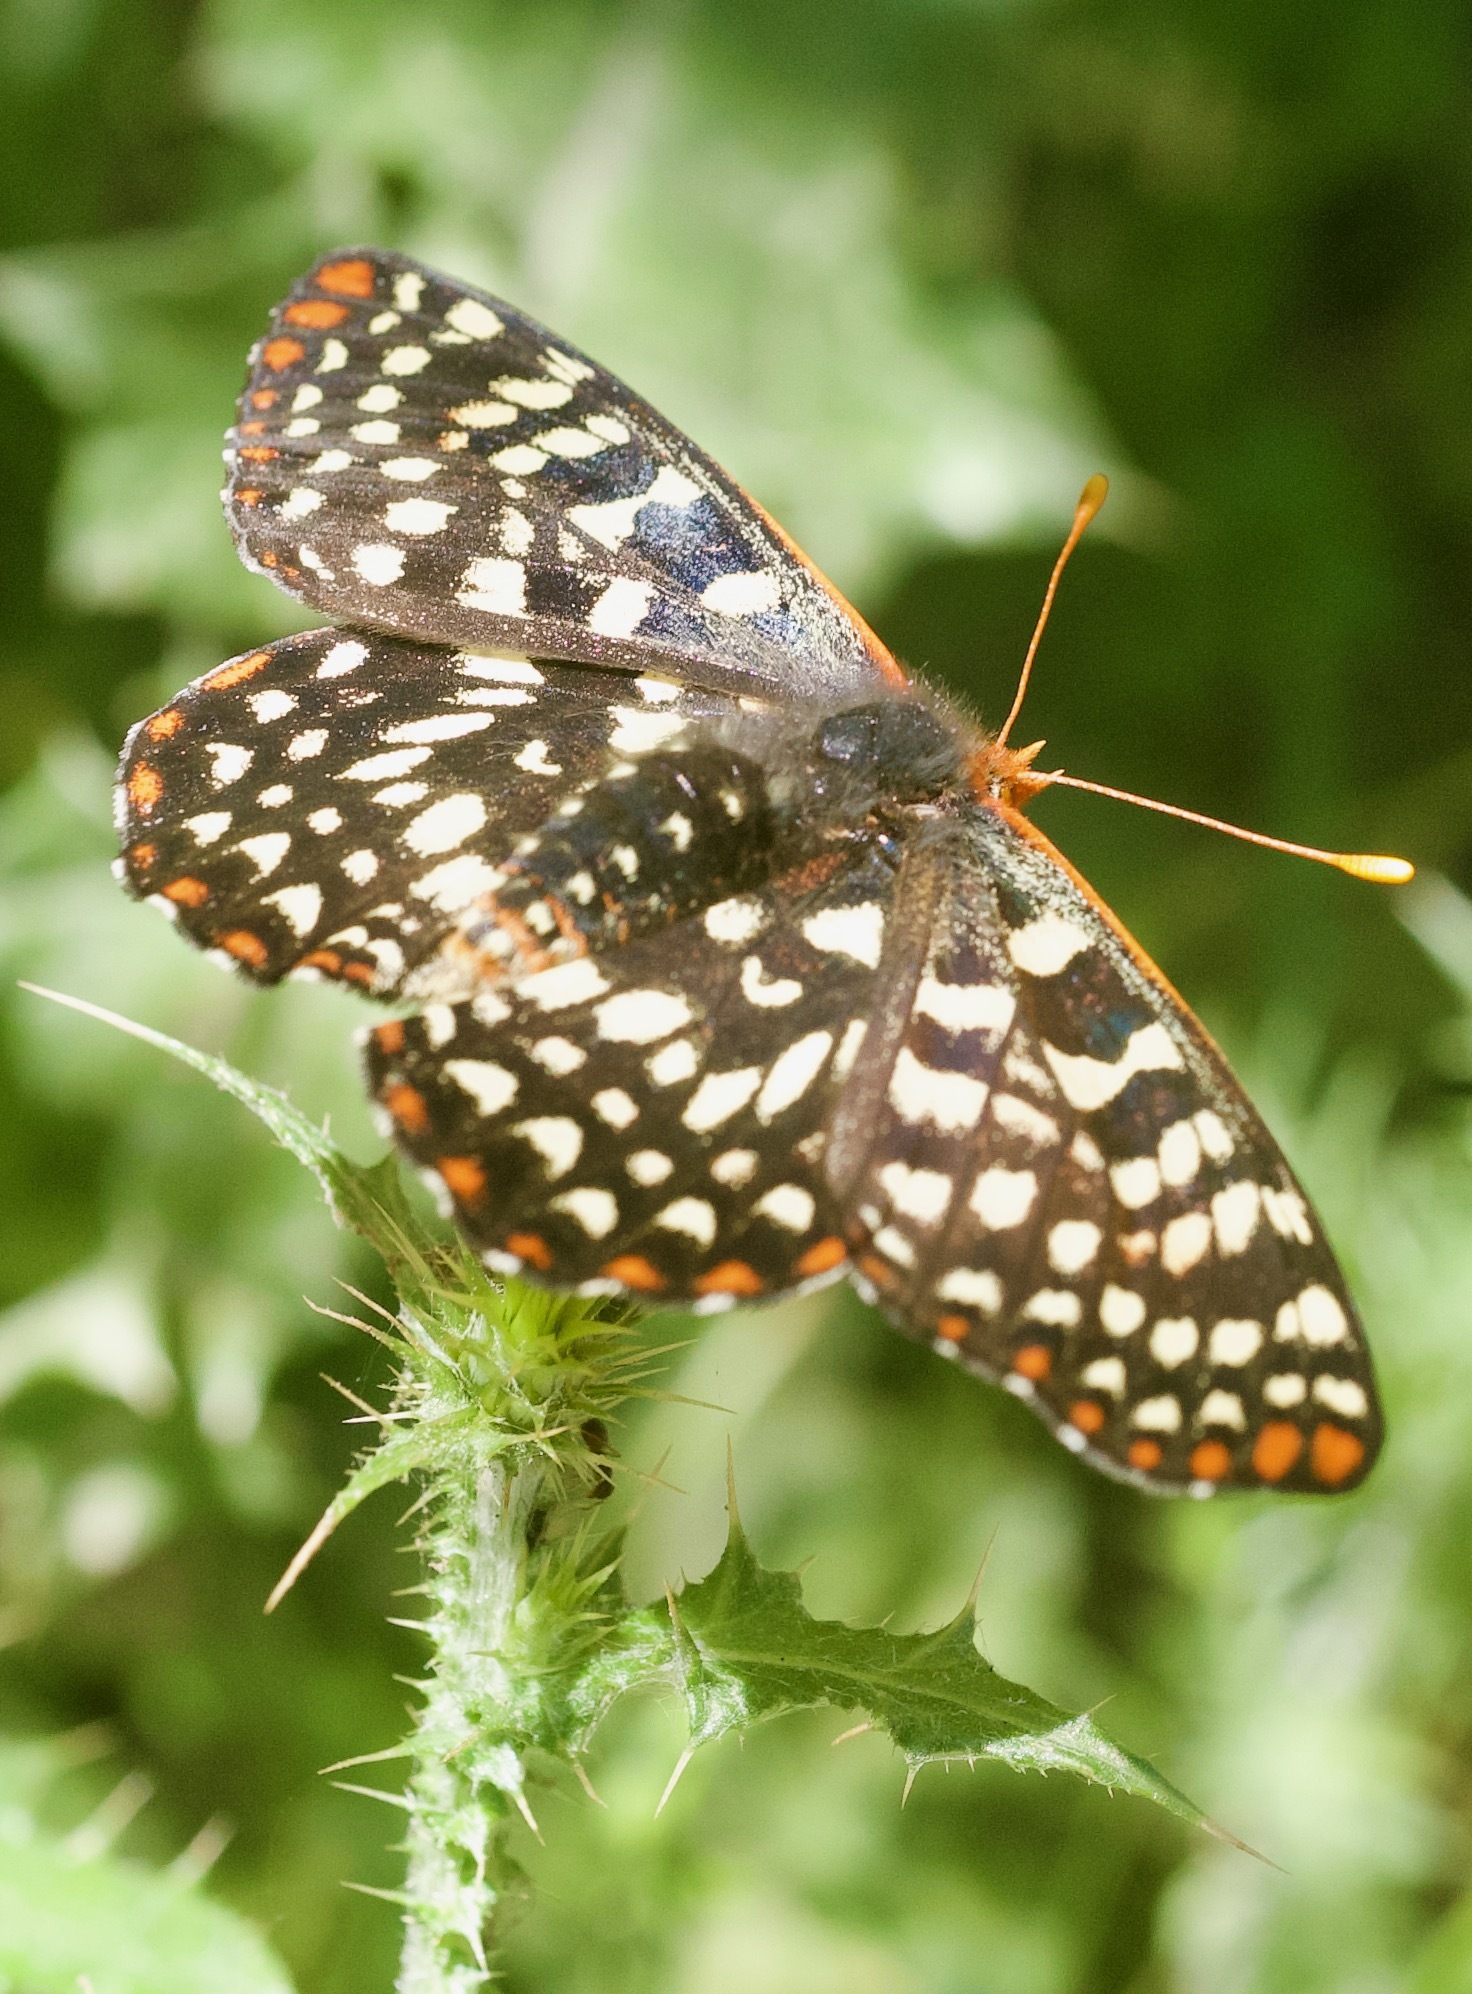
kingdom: Animalia
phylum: Arthropoda
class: Insecta
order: Lepidoptera
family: Nymphalidae
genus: Occidryas
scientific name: Occidryas chalcedona
